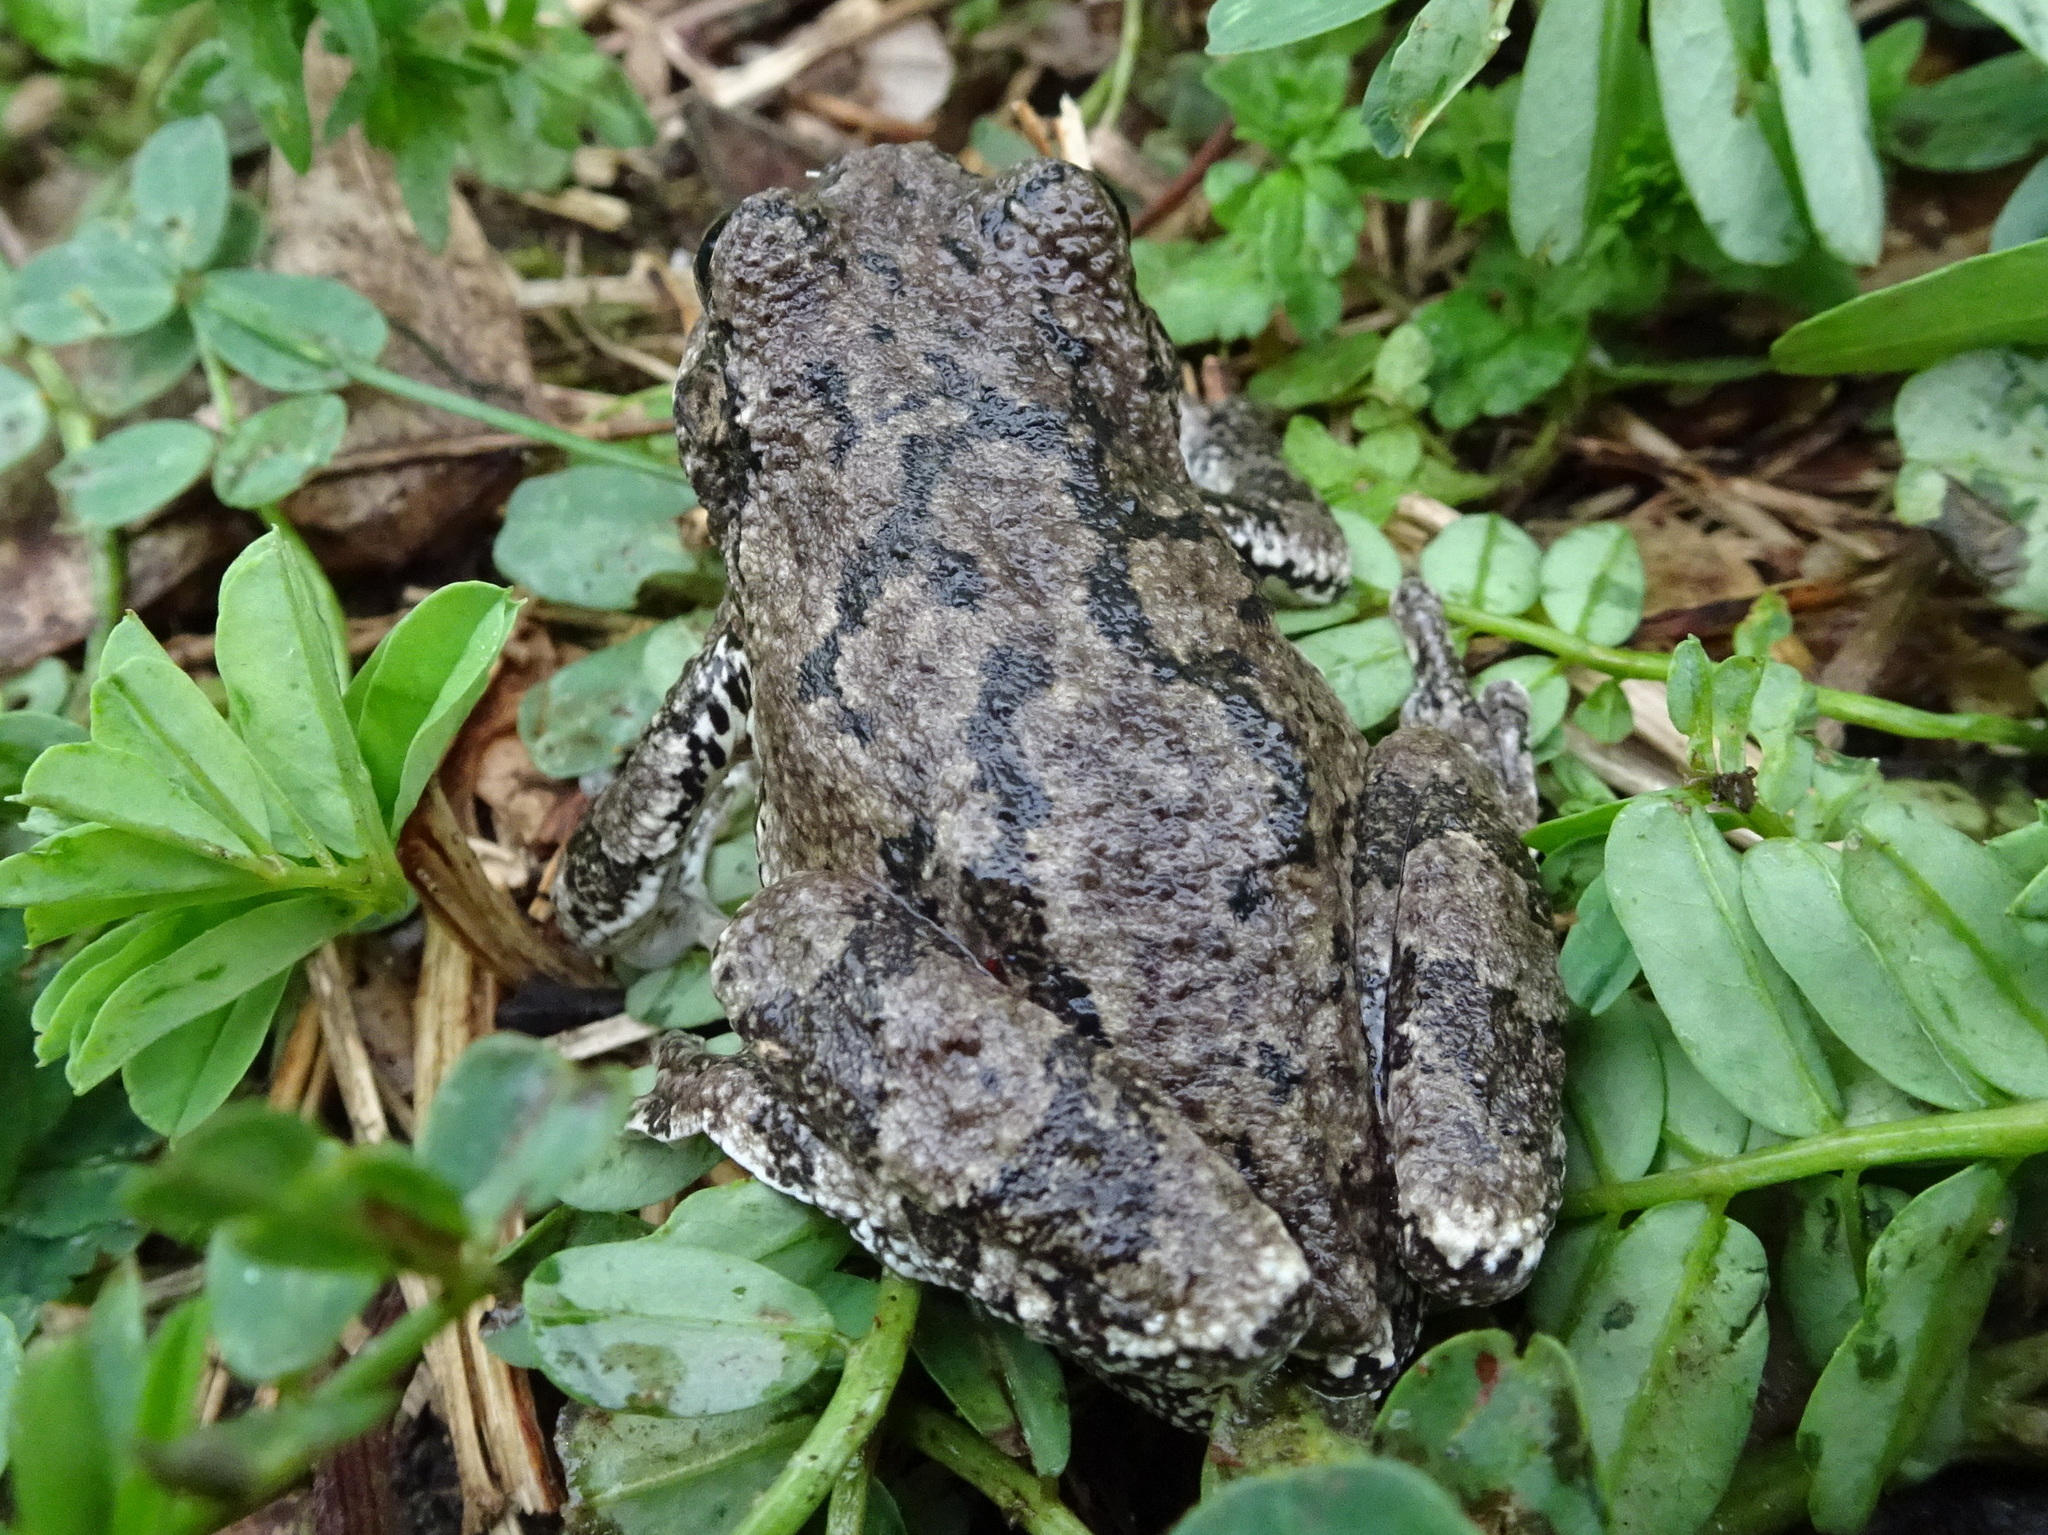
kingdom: Animalia
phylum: Chordata
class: Amphibia
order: Anura
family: Hylidae
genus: Hyla
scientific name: Hyla
